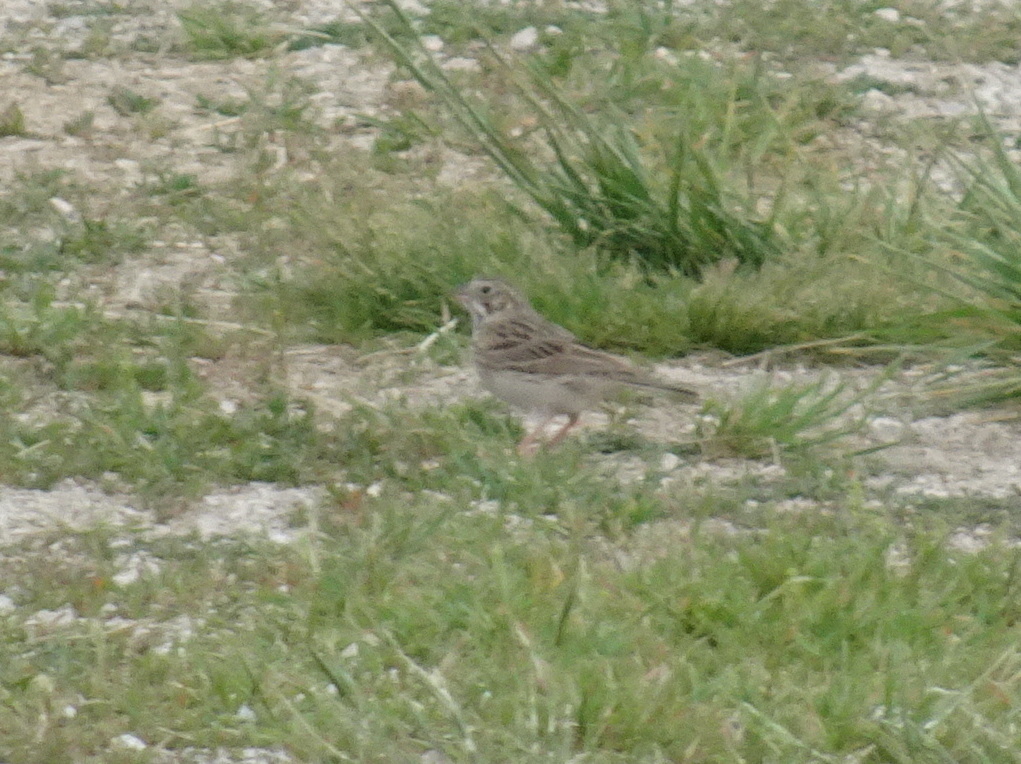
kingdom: Animalia
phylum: Chordata
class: Aves
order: Passeriformes
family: Passerellidae
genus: Pooecetes
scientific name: Pooecetes gramineus
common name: Vesper sparrow
